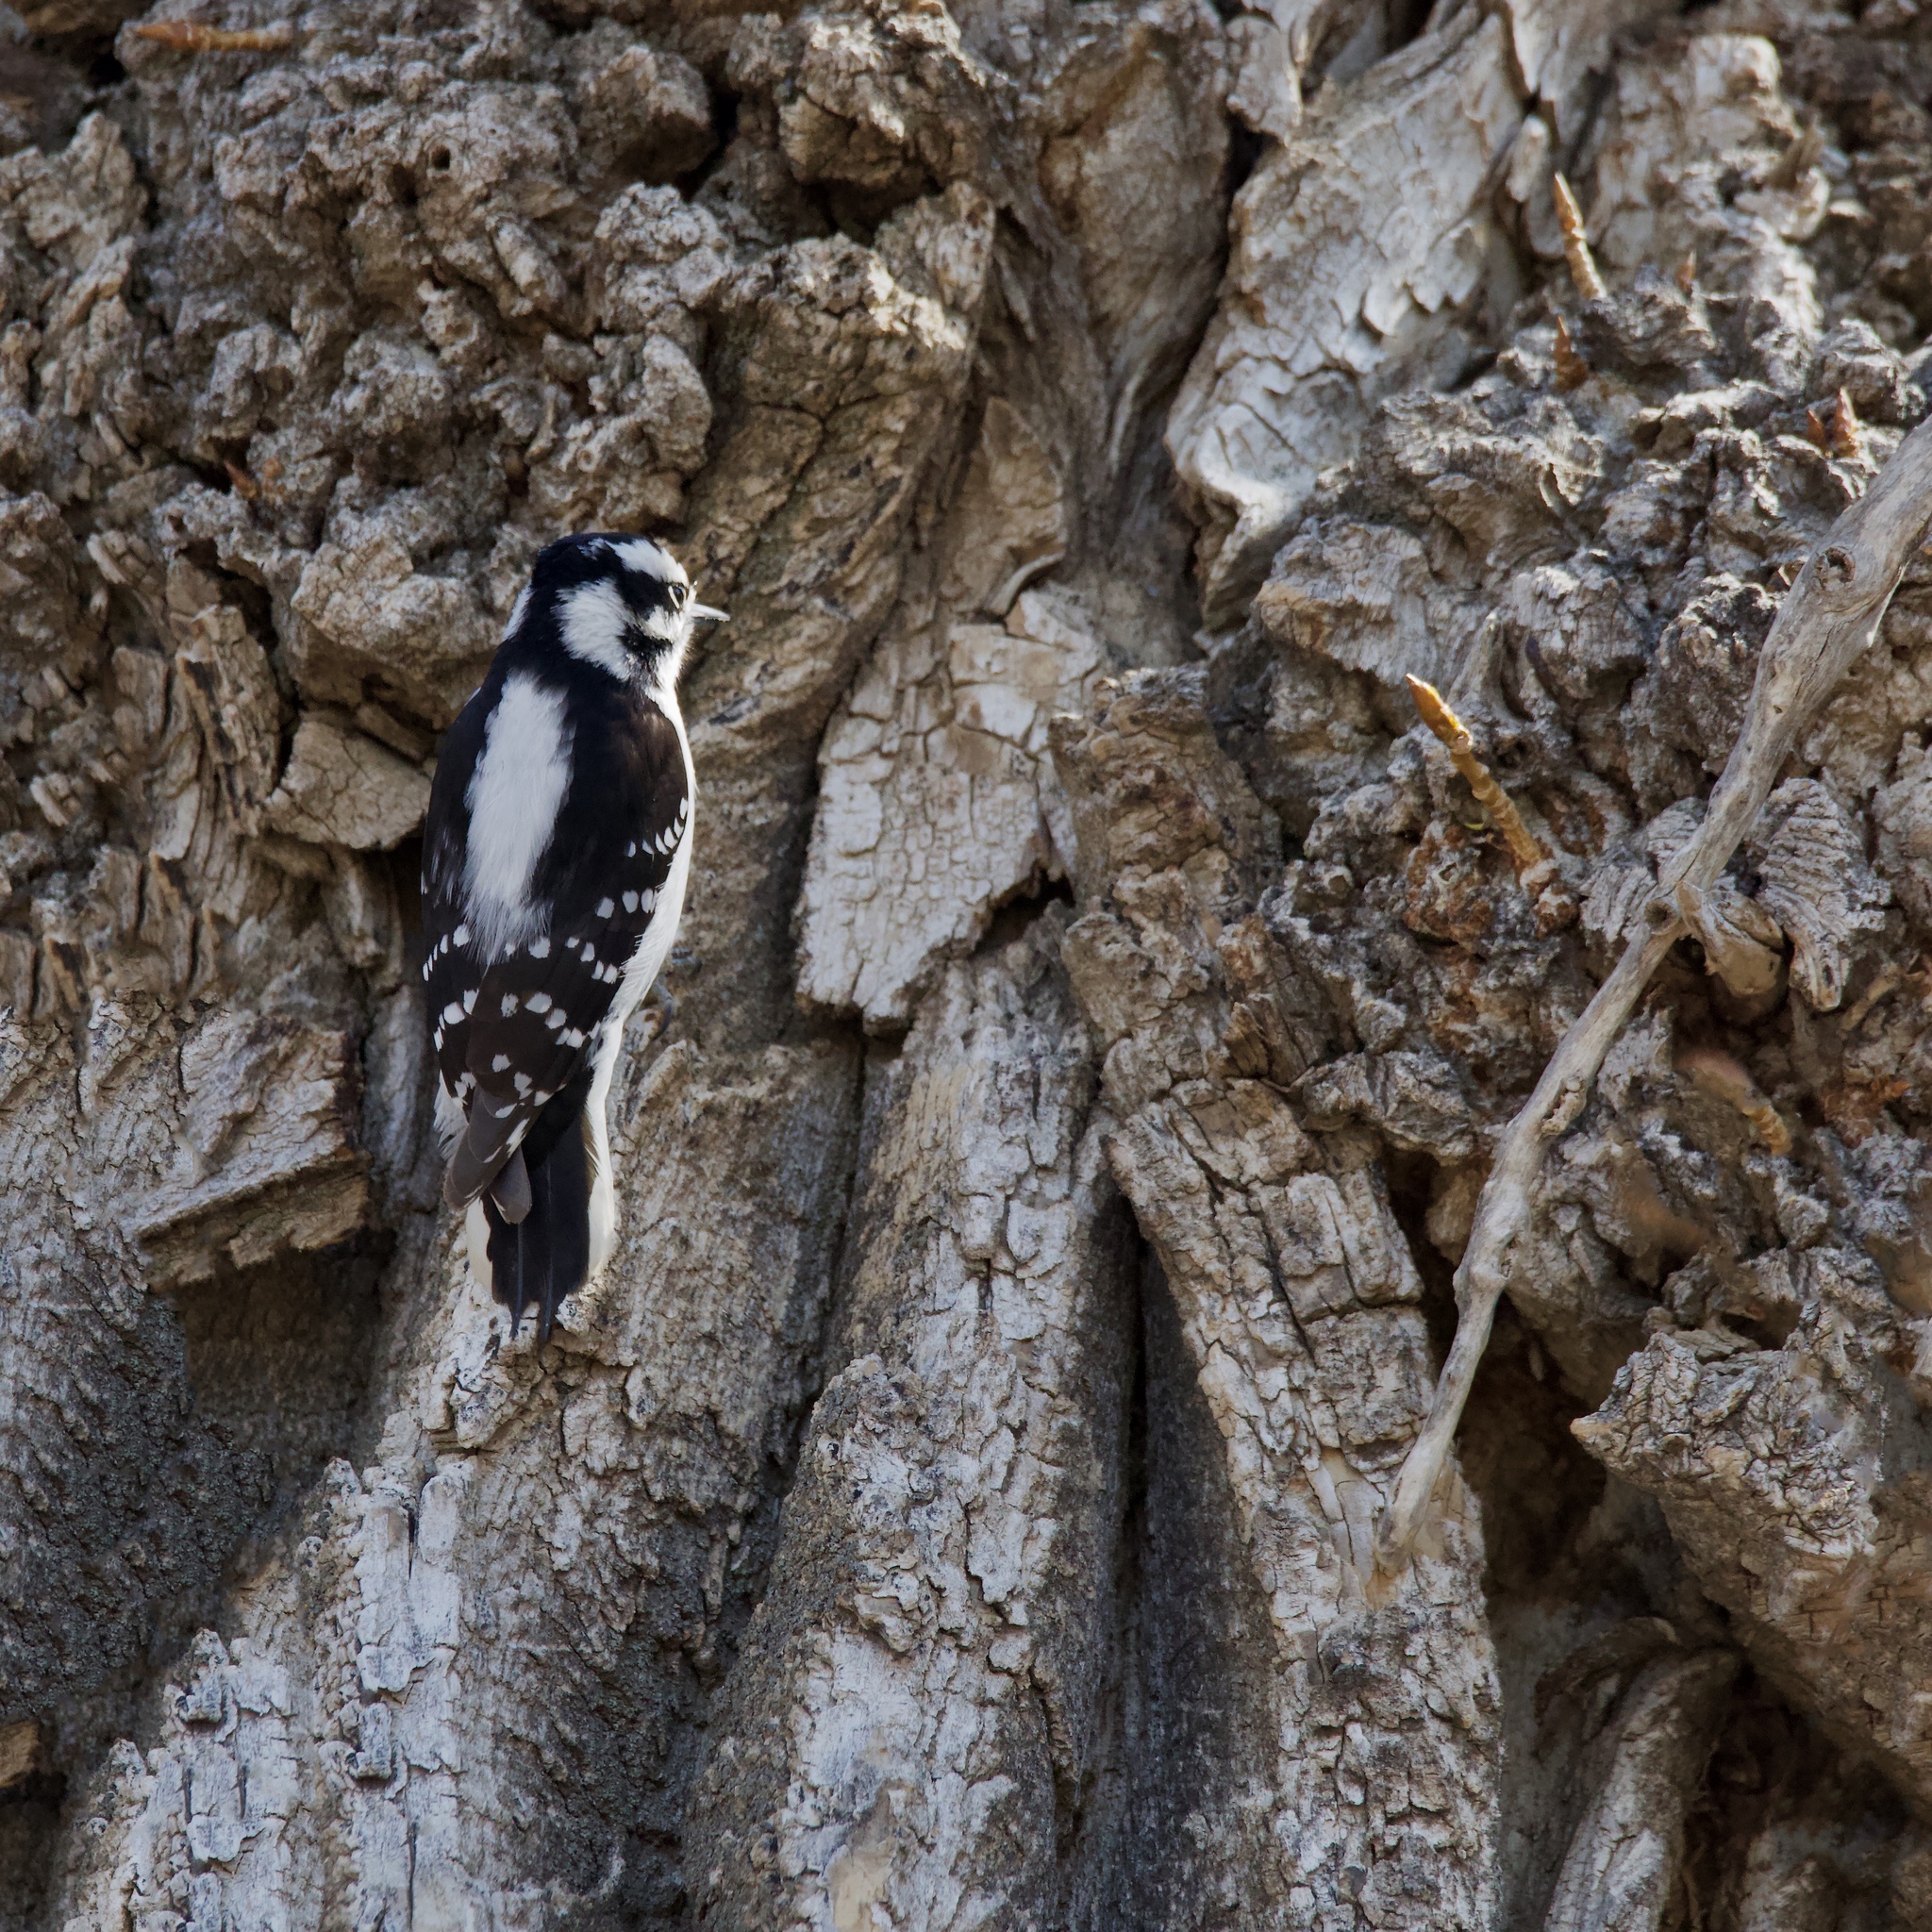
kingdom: Animalia
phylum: Chordata
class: Aves
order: Piciformes
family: Picidae
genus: Dryobates
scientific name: Dryobates pubescens
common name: Downy woodpecker
